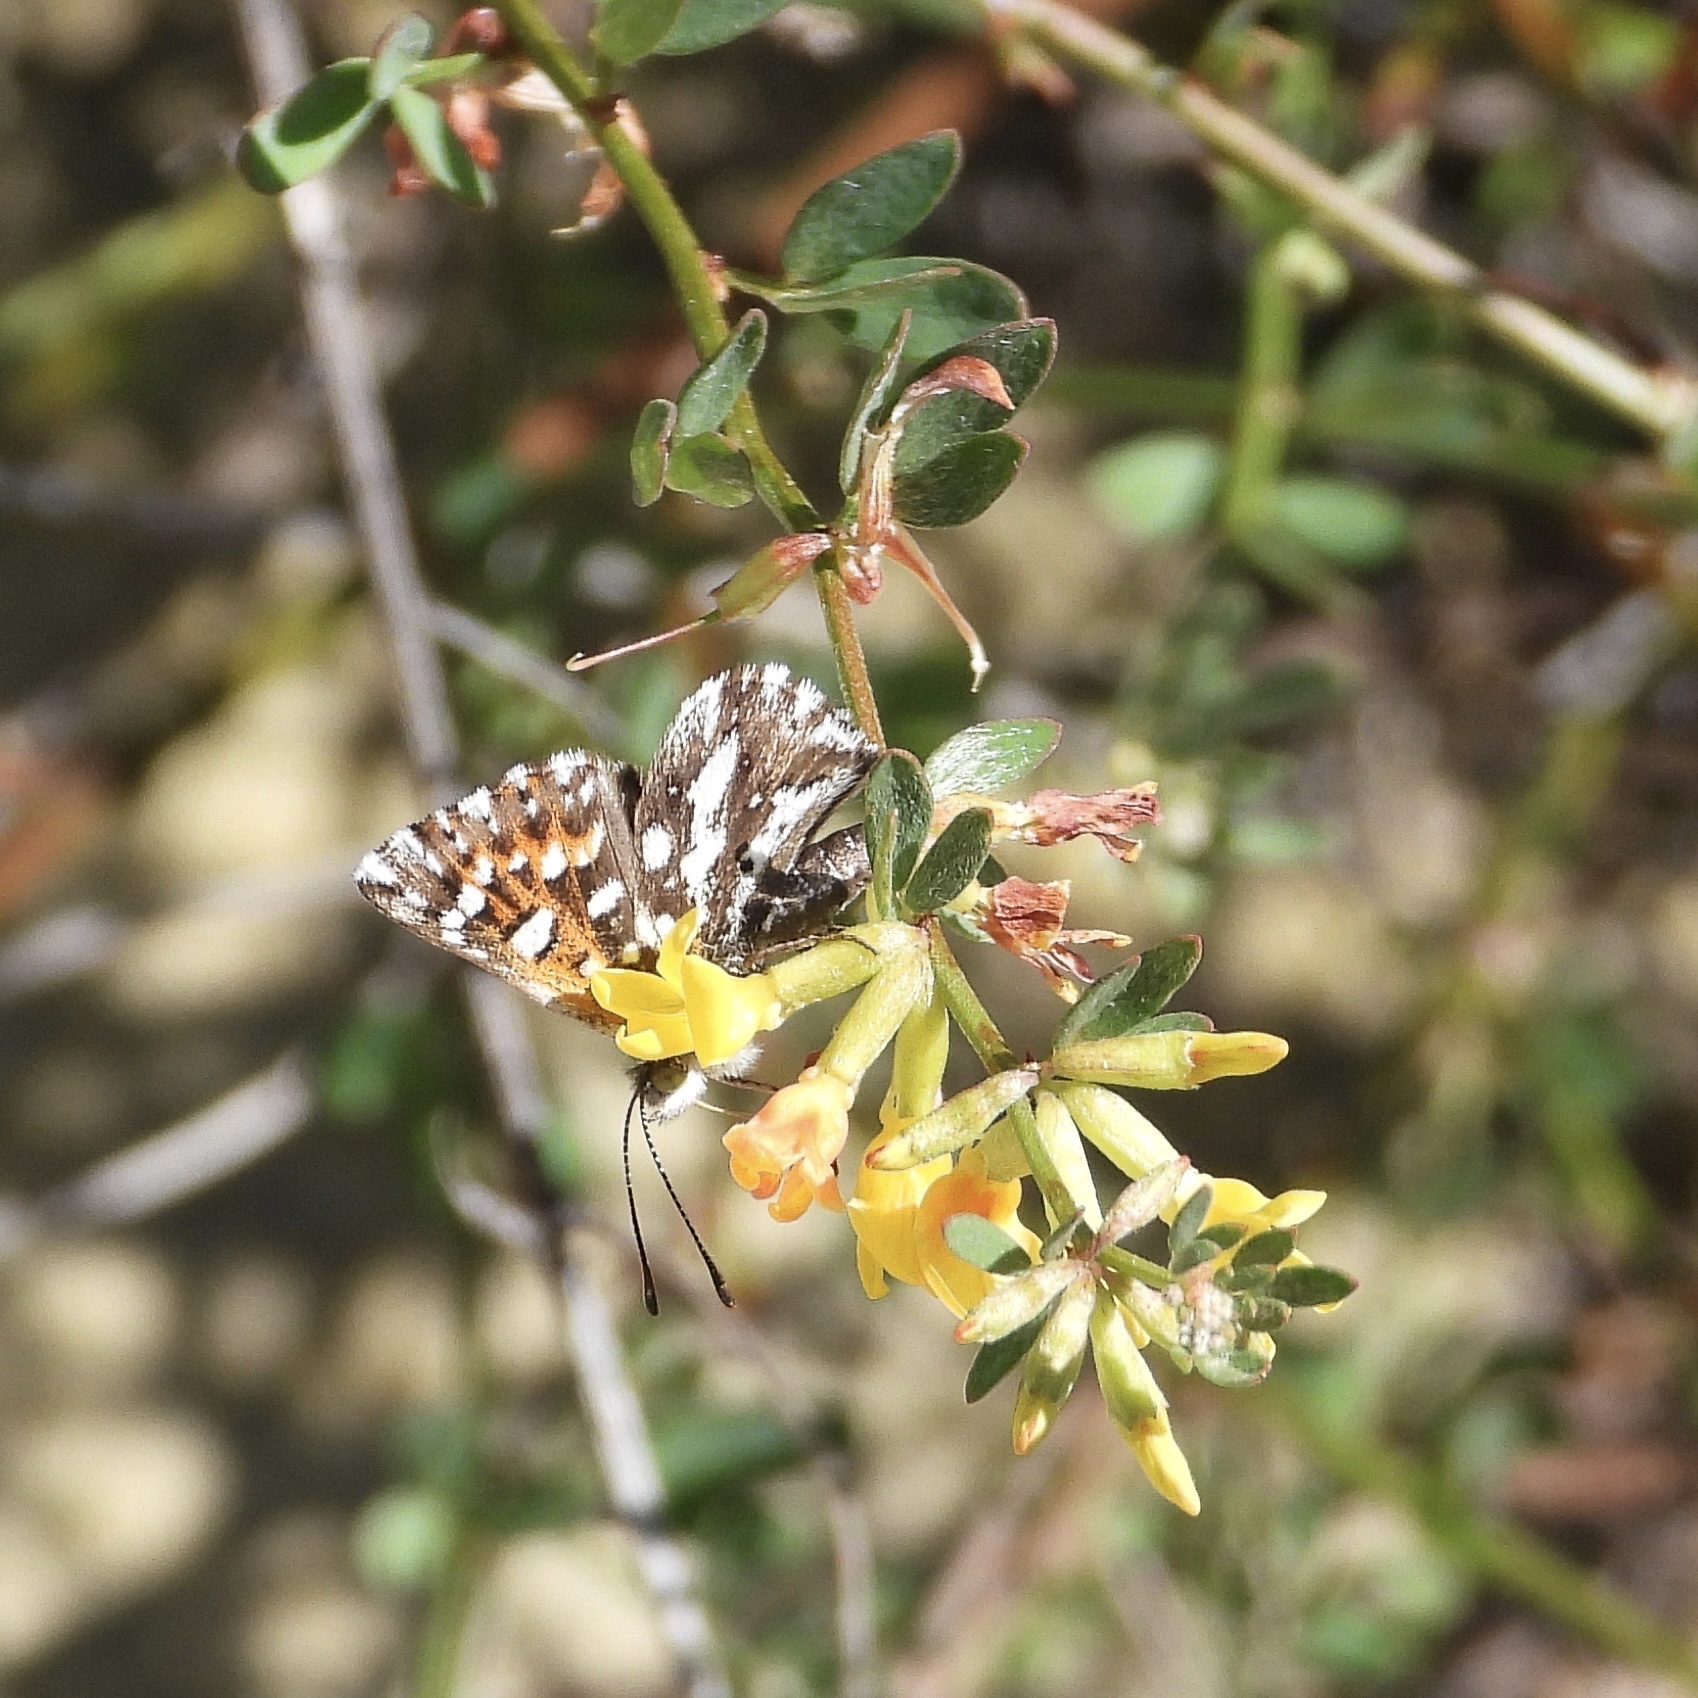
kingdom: Animalia
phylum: Arthropoda
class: Insecta
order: Lepidoptera
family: Riodinidae
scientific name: Riodinidae
